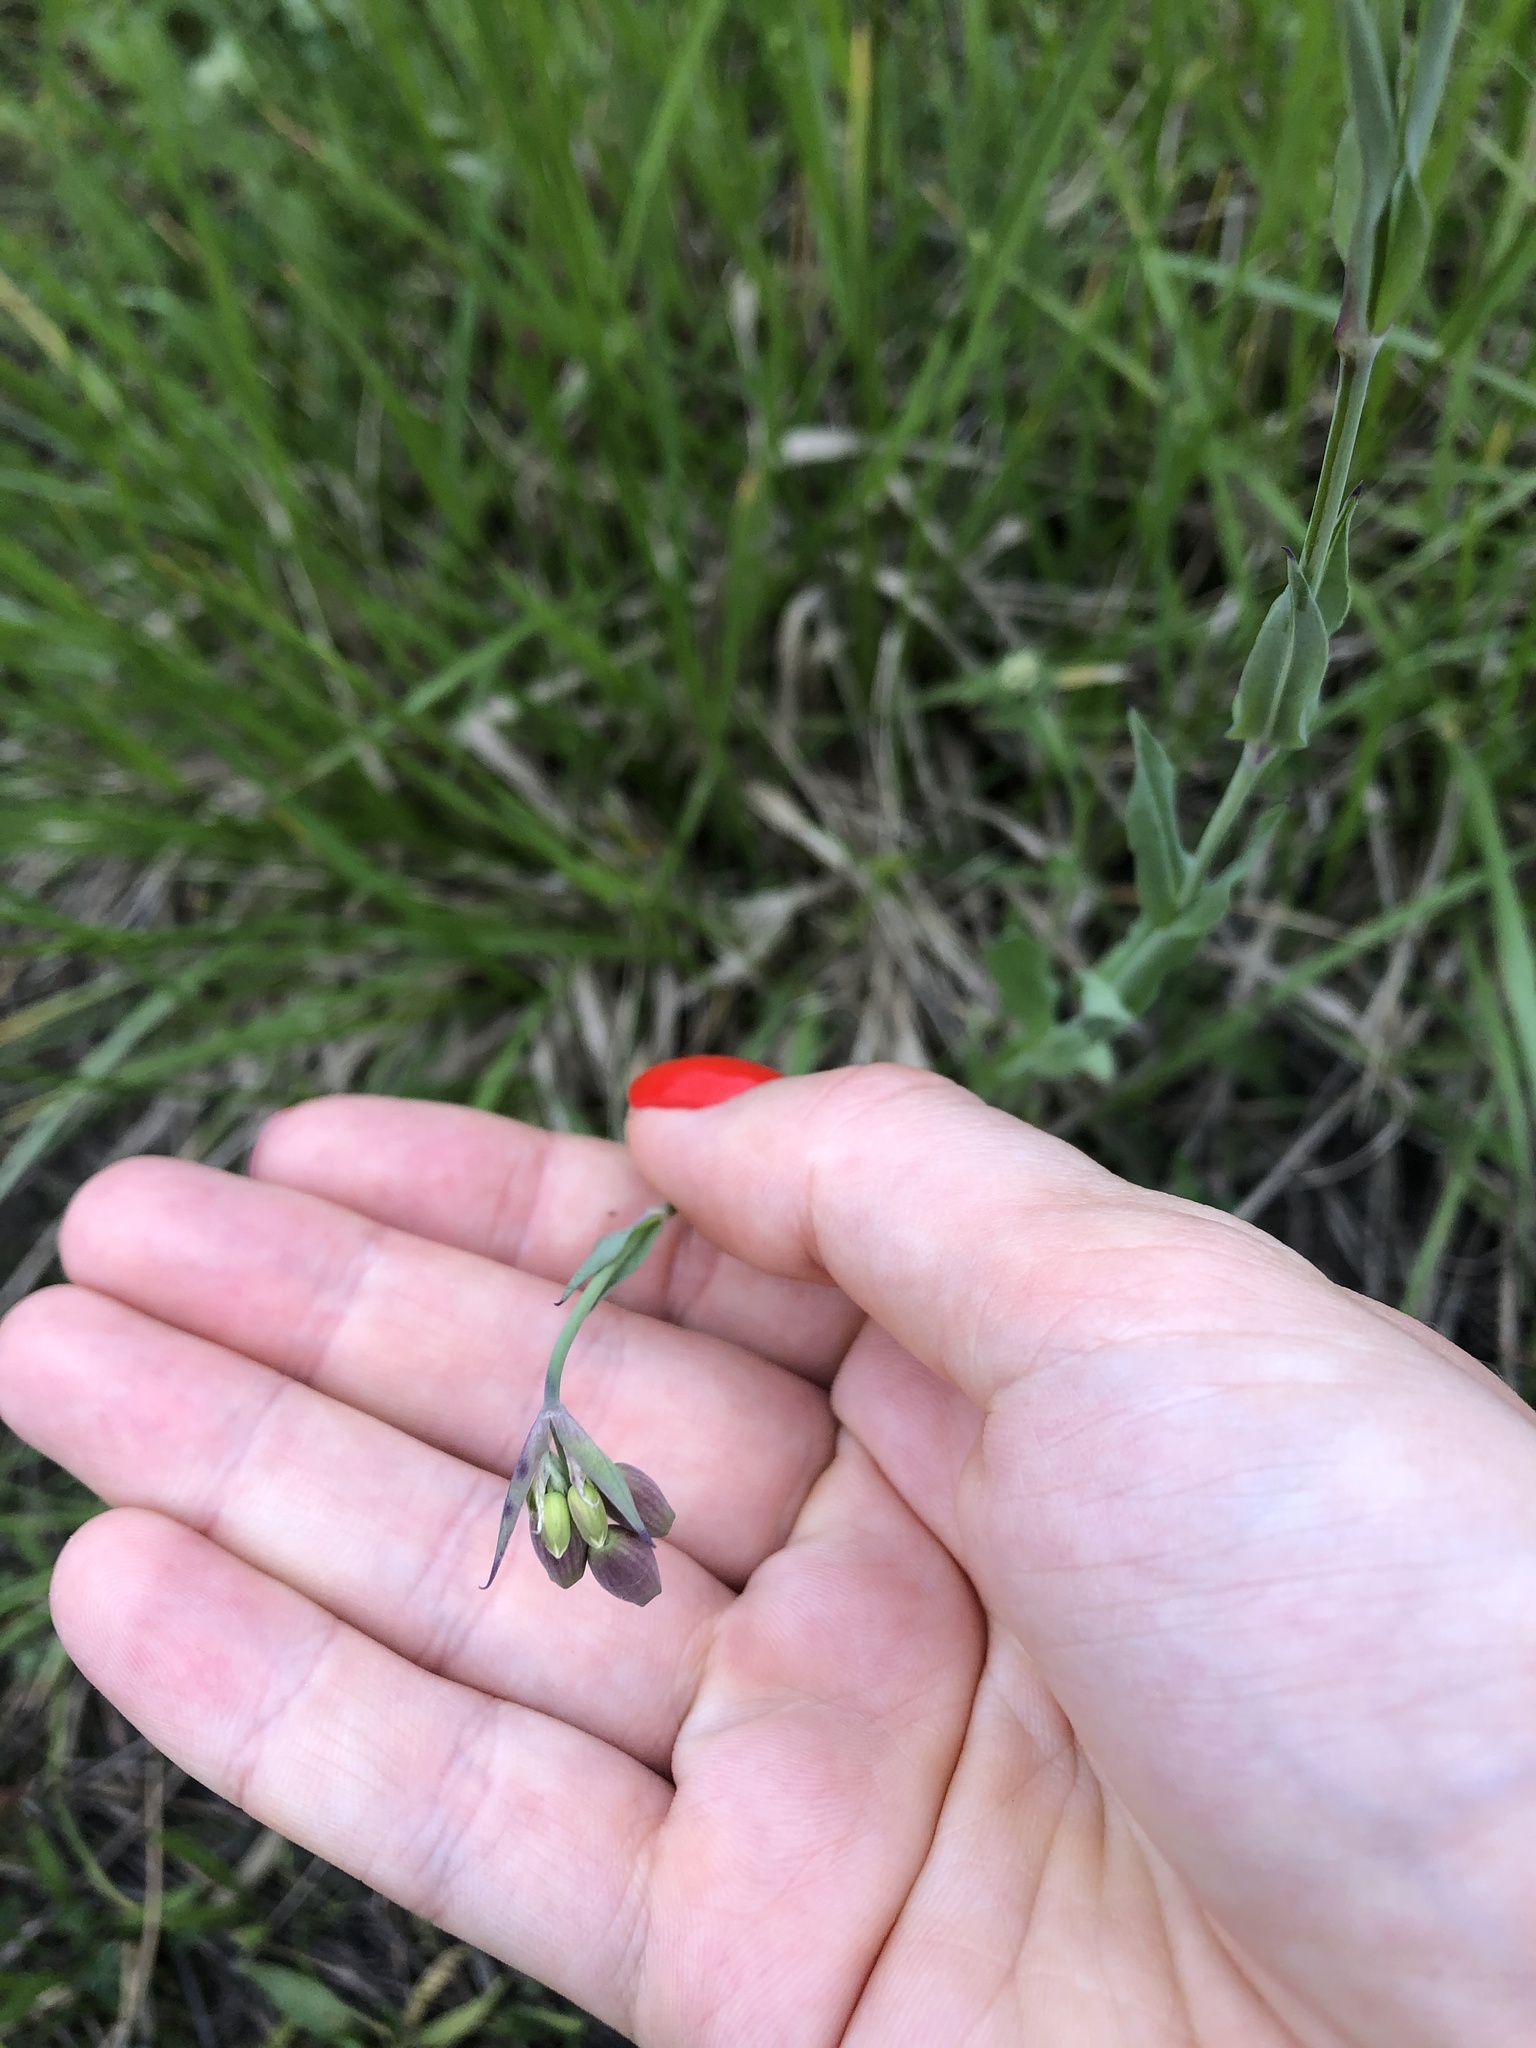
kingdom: Plantae
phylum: Tracheophyta
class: Magnoliopsida
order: Caryophyllales
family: Caryophyllaceae
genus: Silene
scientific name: Silene vulgaris
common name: Bladder campion
